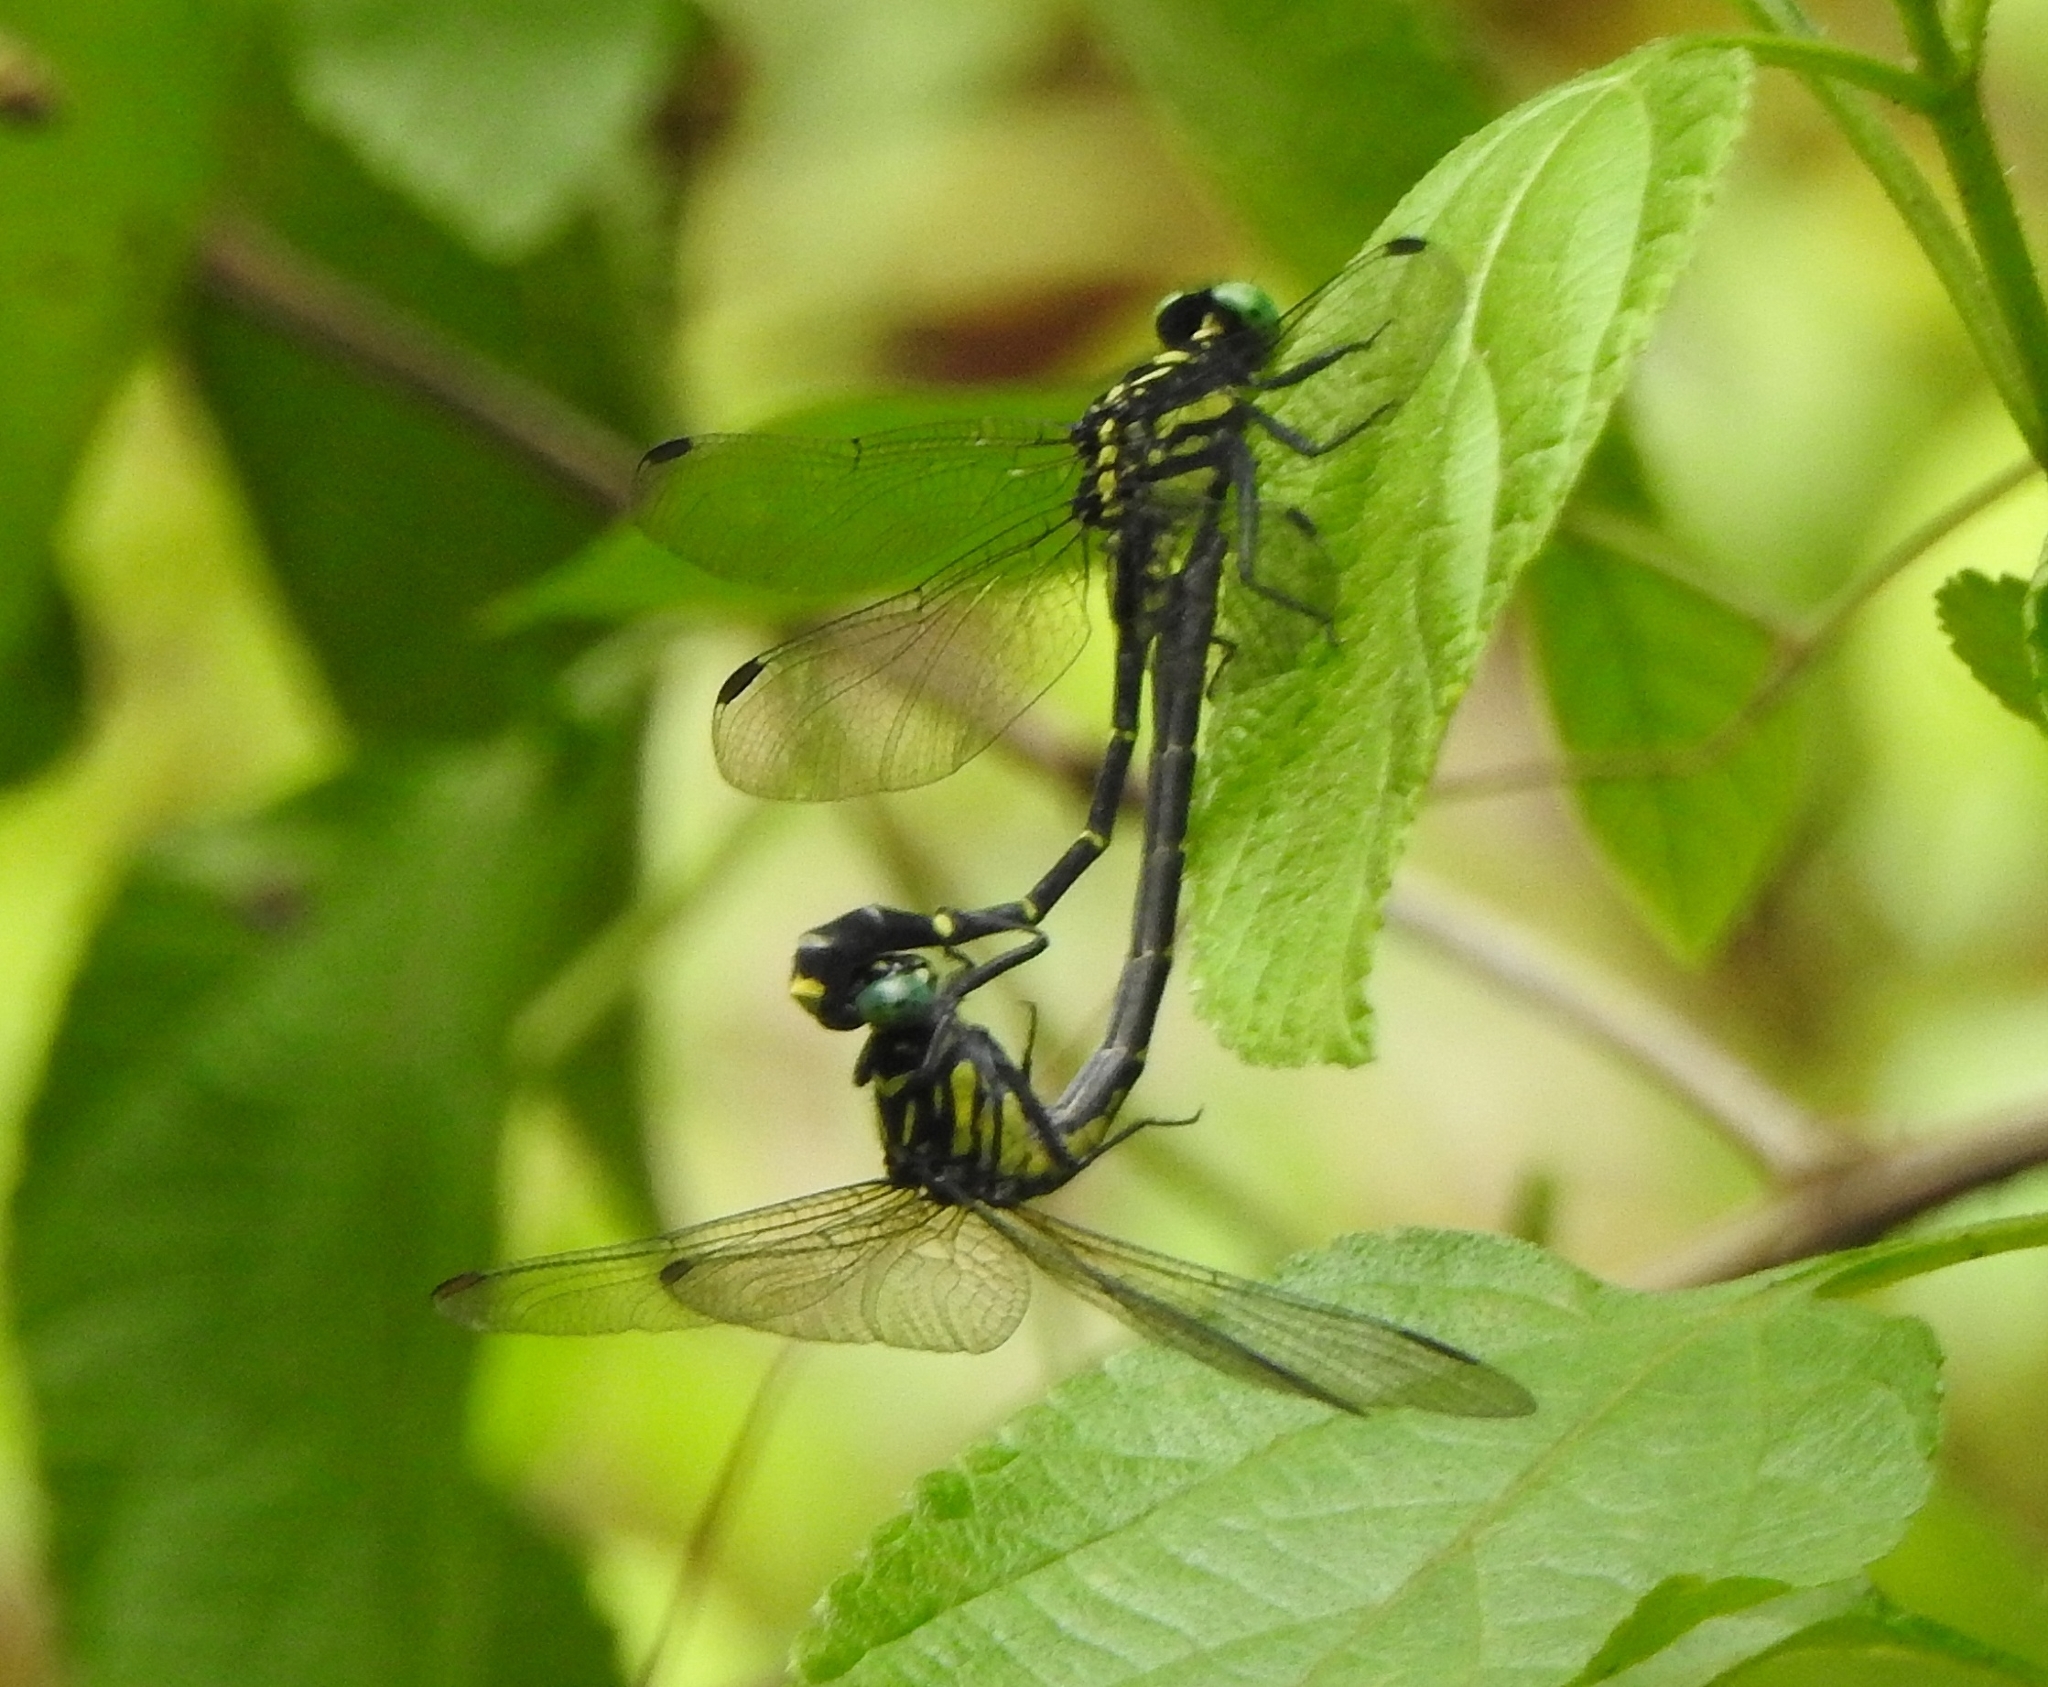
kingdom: Animalia
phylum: Arthropoda
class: Insecta
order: Odonata
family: Gomphidae
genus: Burmagomphus
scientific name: Burmagomphus chaukulensis
